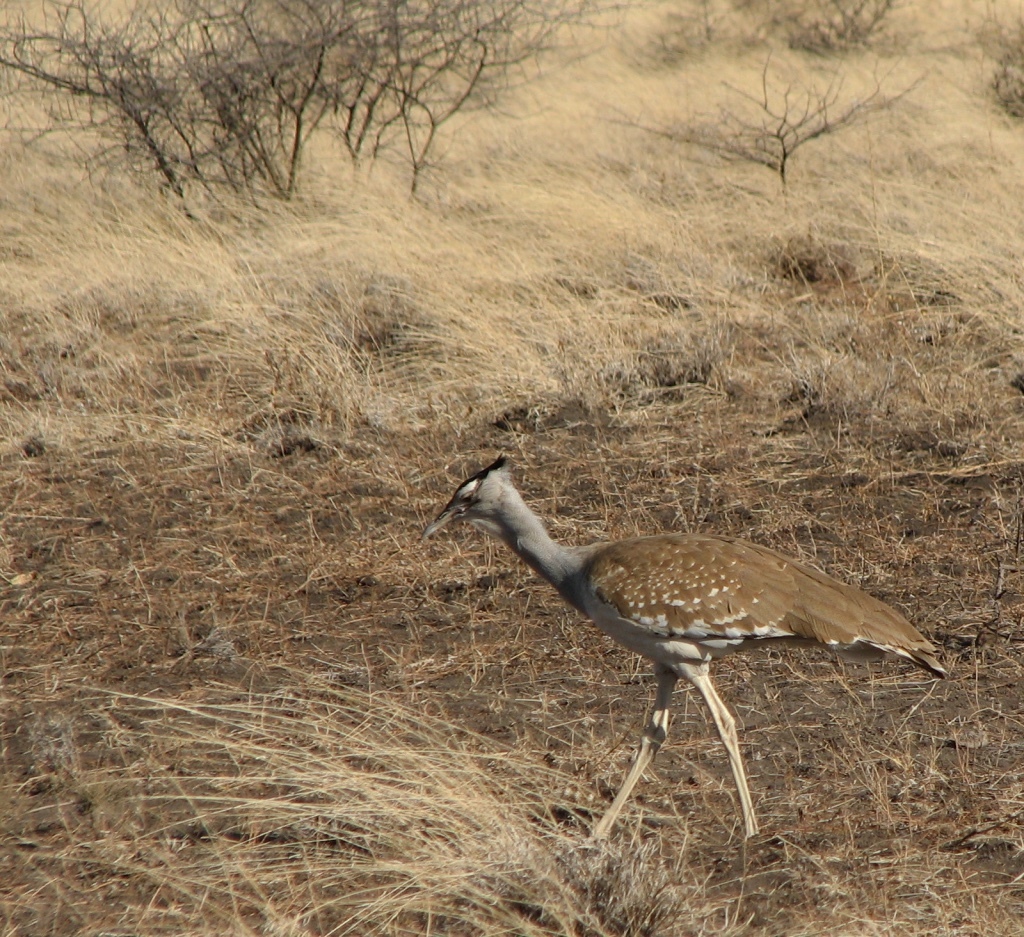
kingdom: Animalia
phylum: Chordata
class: Aves
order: Otidiformes
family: Otididae
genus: Ardeotis
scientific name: Ardeotis arabs
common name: Arabian bustard
